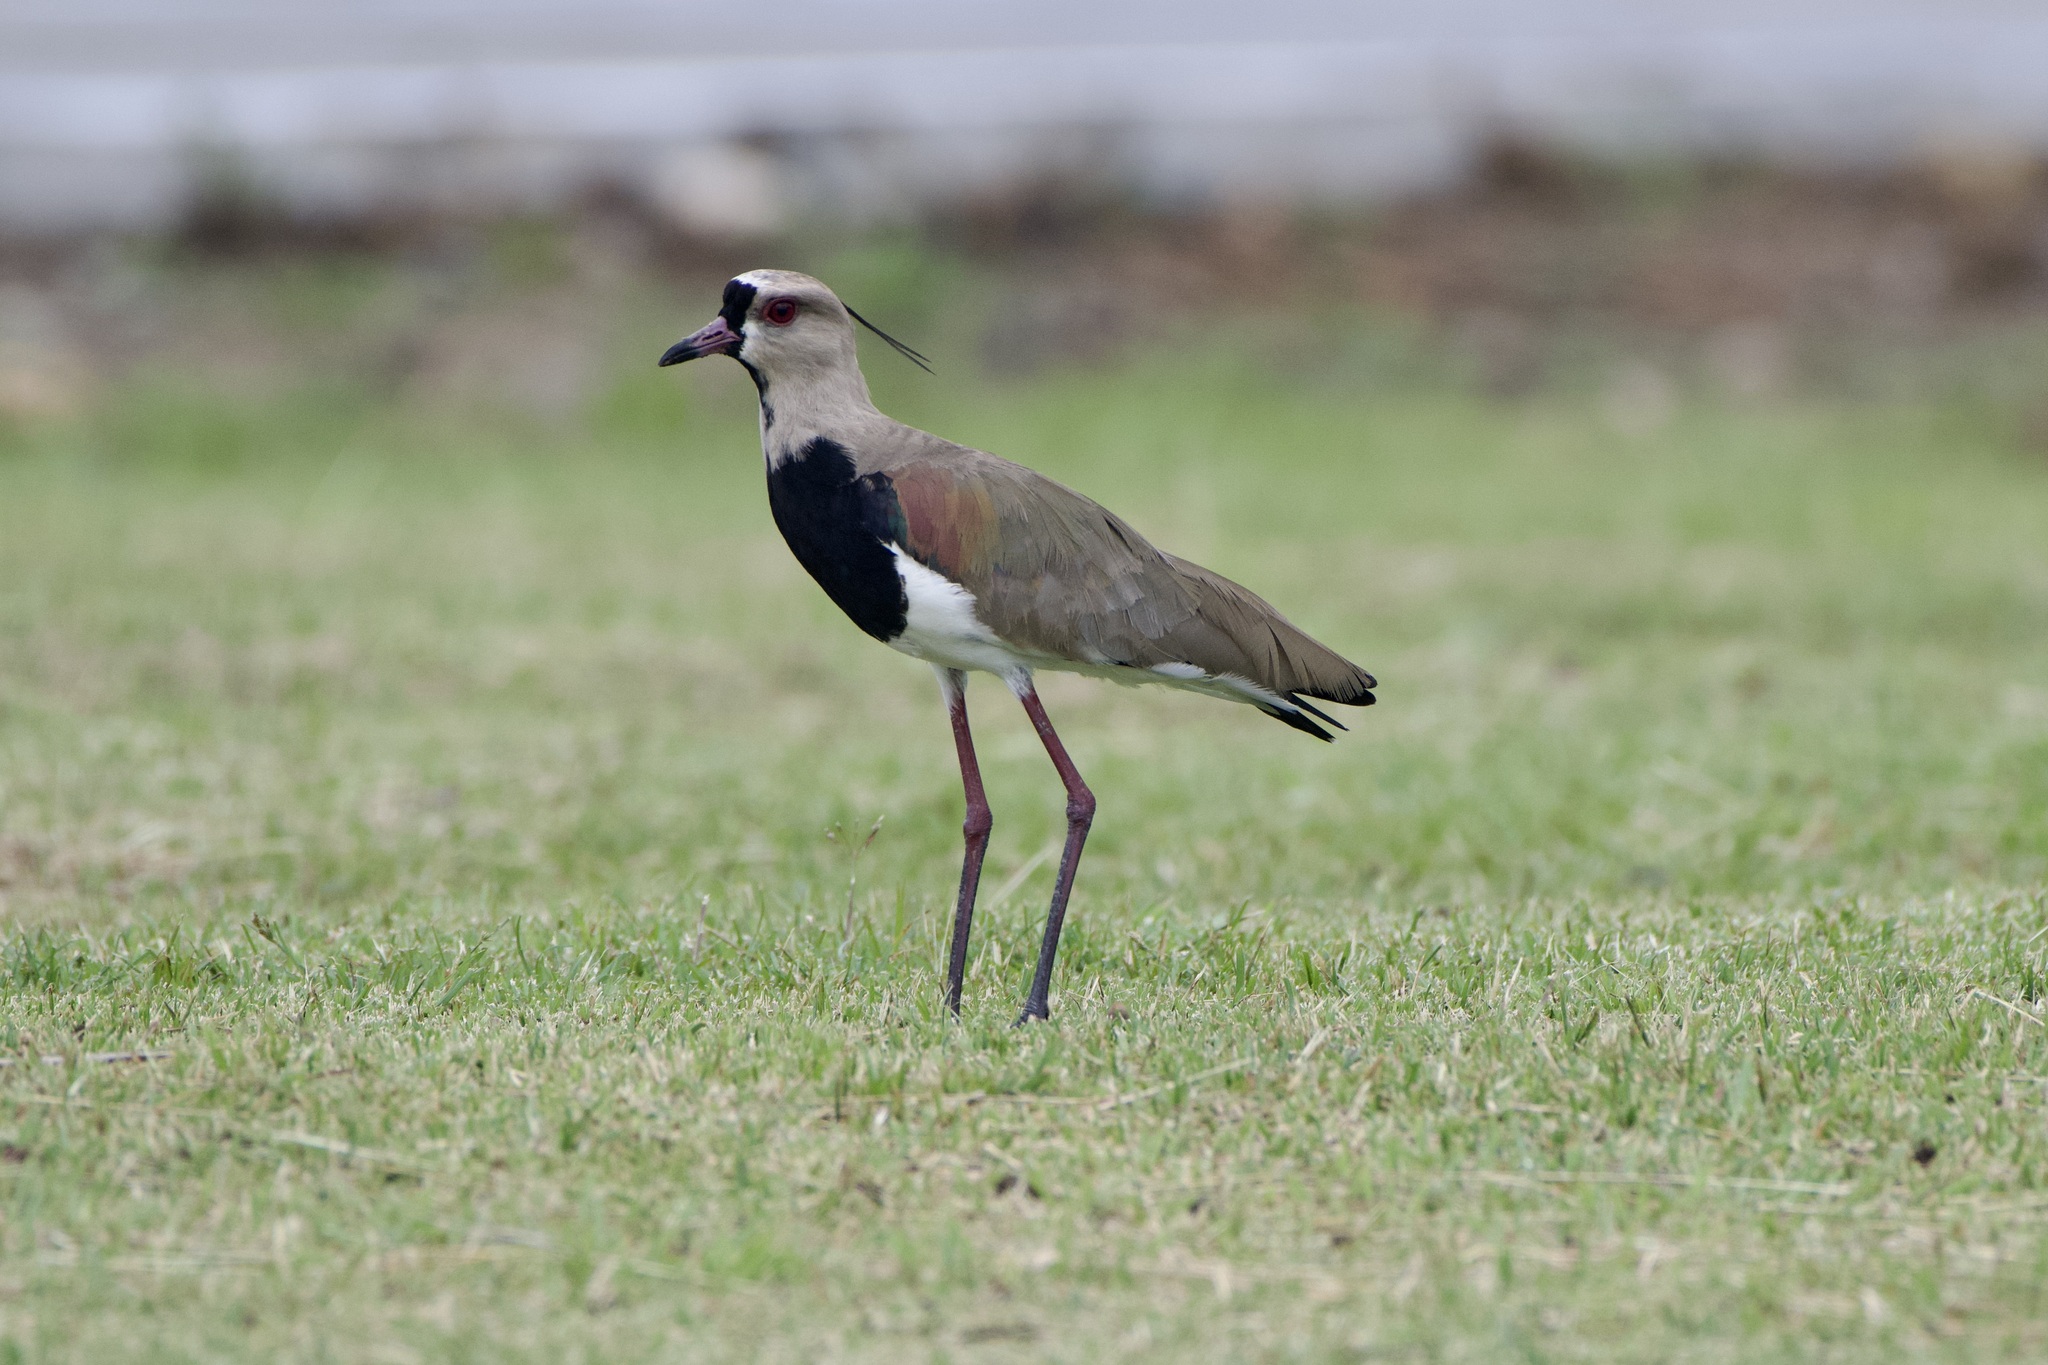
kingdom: Animalia
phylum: Chordata
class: Aves
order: Charadriiformes
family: Charadriidae
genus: Vanellus
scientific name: Vanellus chilensis
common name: Southern lapwing
